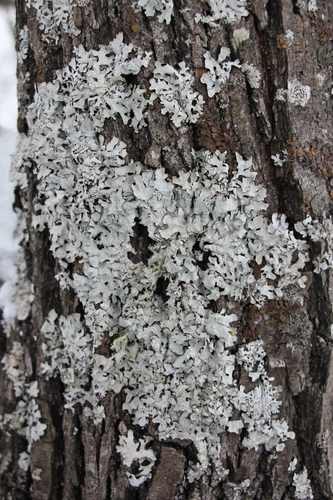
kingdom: Fungi
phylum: Ascomycota
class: Lecanoromycetes
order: Lecanorales
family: Parmeliaceae
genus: Parmelia
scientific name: Parmelia sulcata
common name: Netted shield lichen
